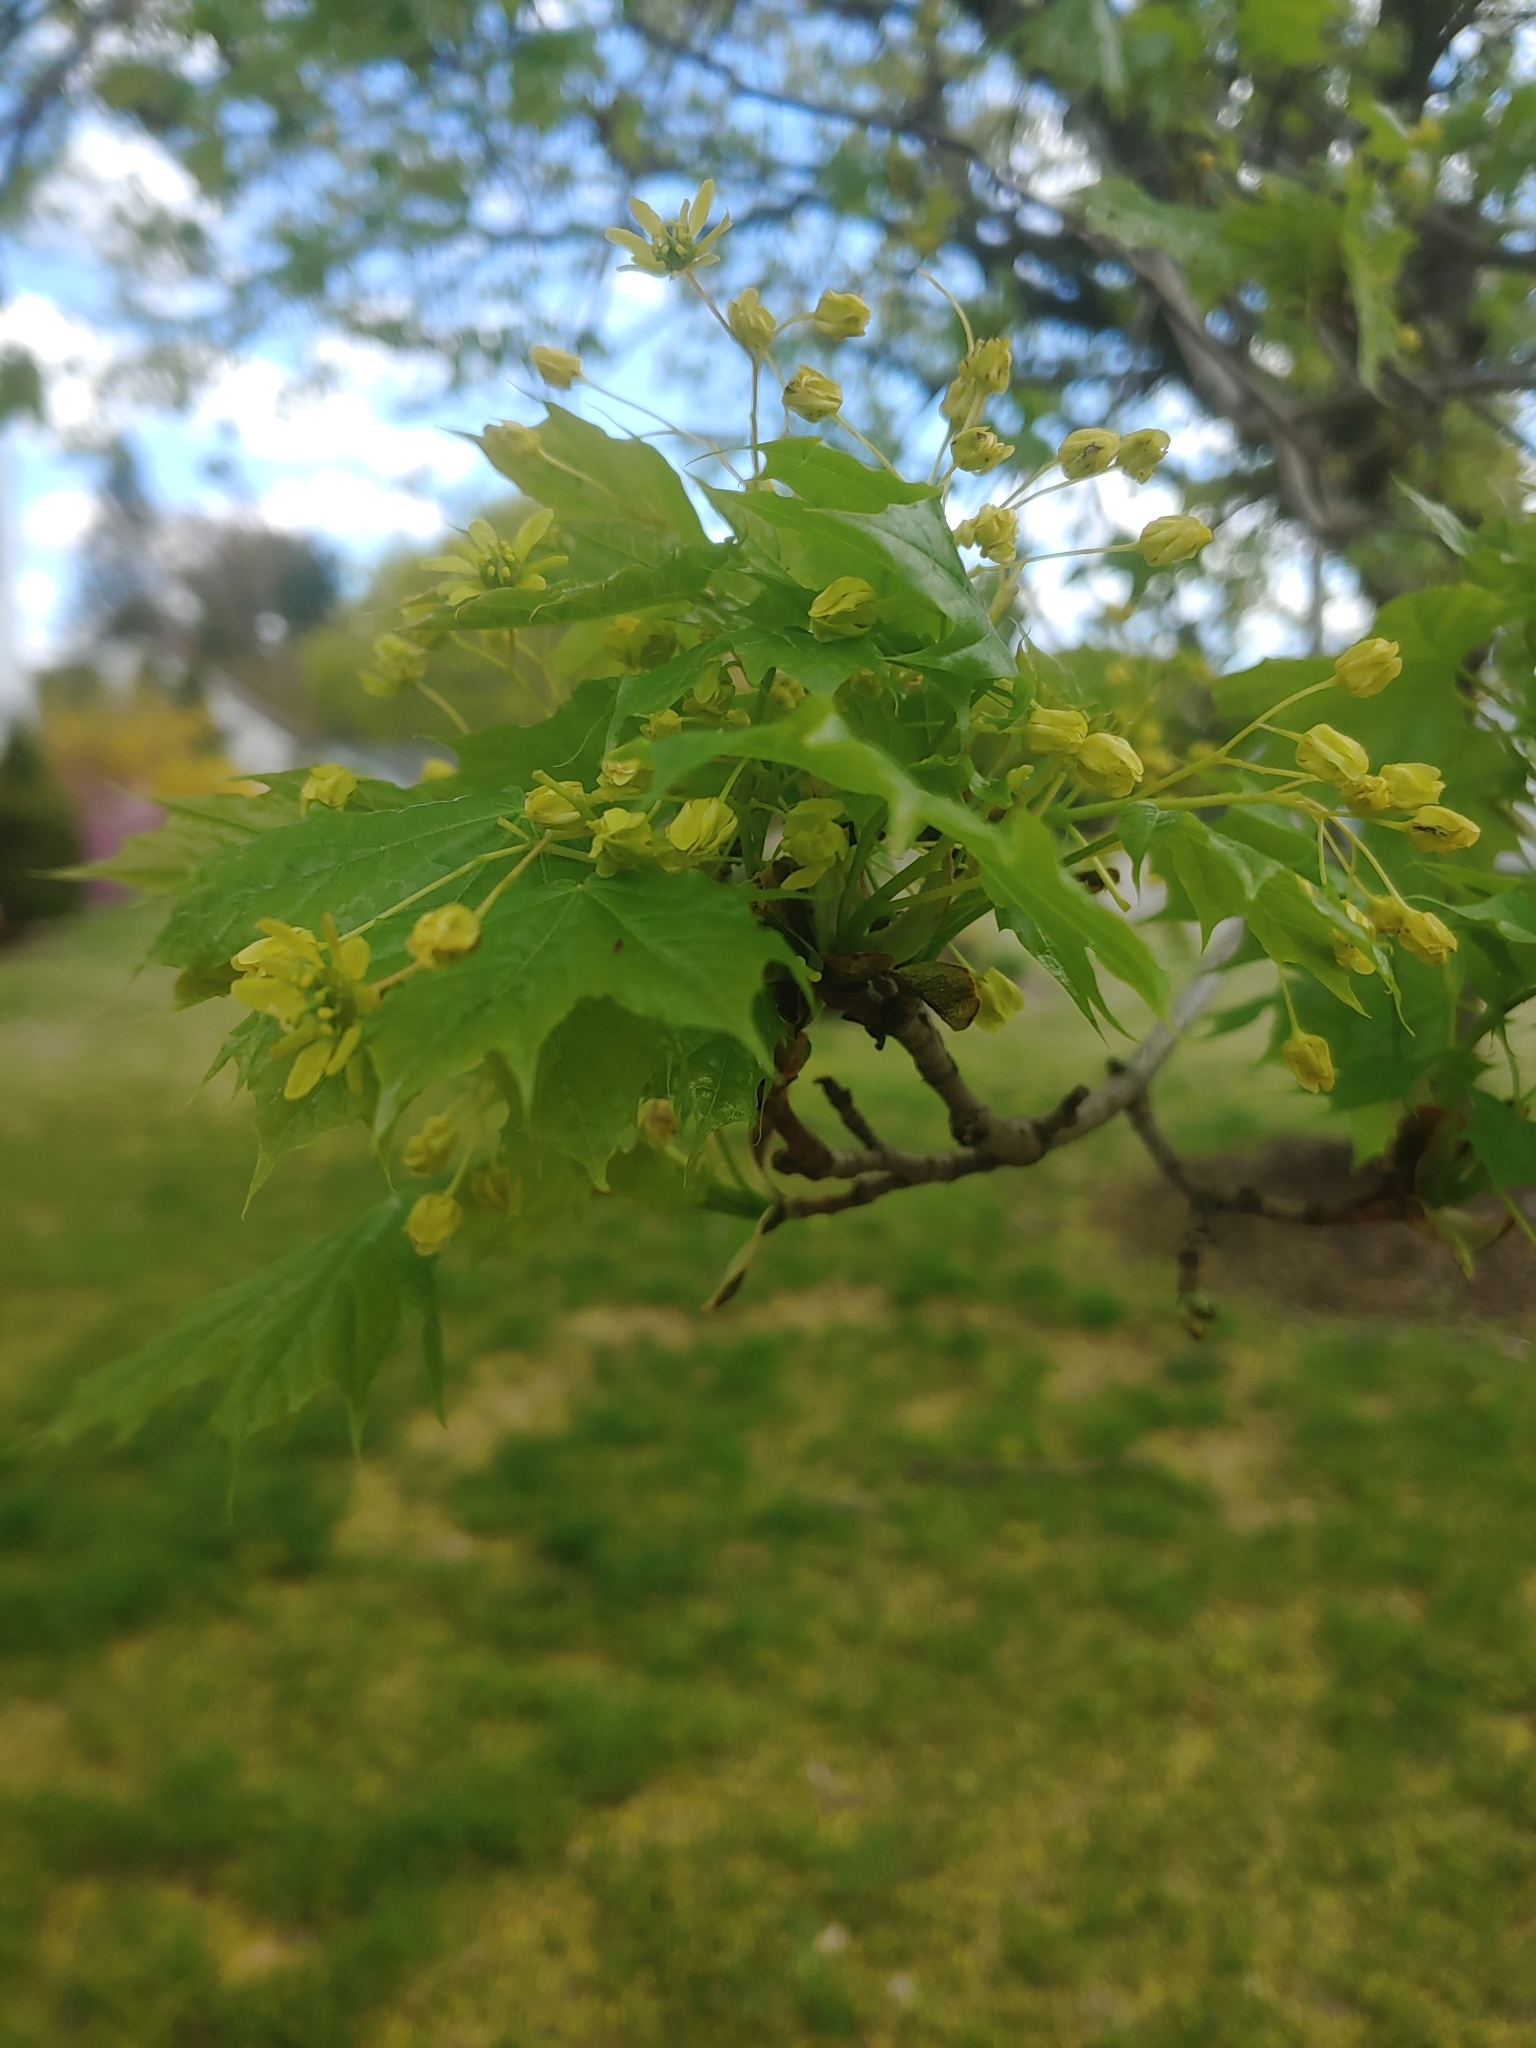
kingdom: Plantae
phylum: Tracheophyta
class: Magnoliopsida
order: Sapindales
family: Sapindaceae
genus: Acer
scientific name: Acer platanoides
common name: Norway maple
